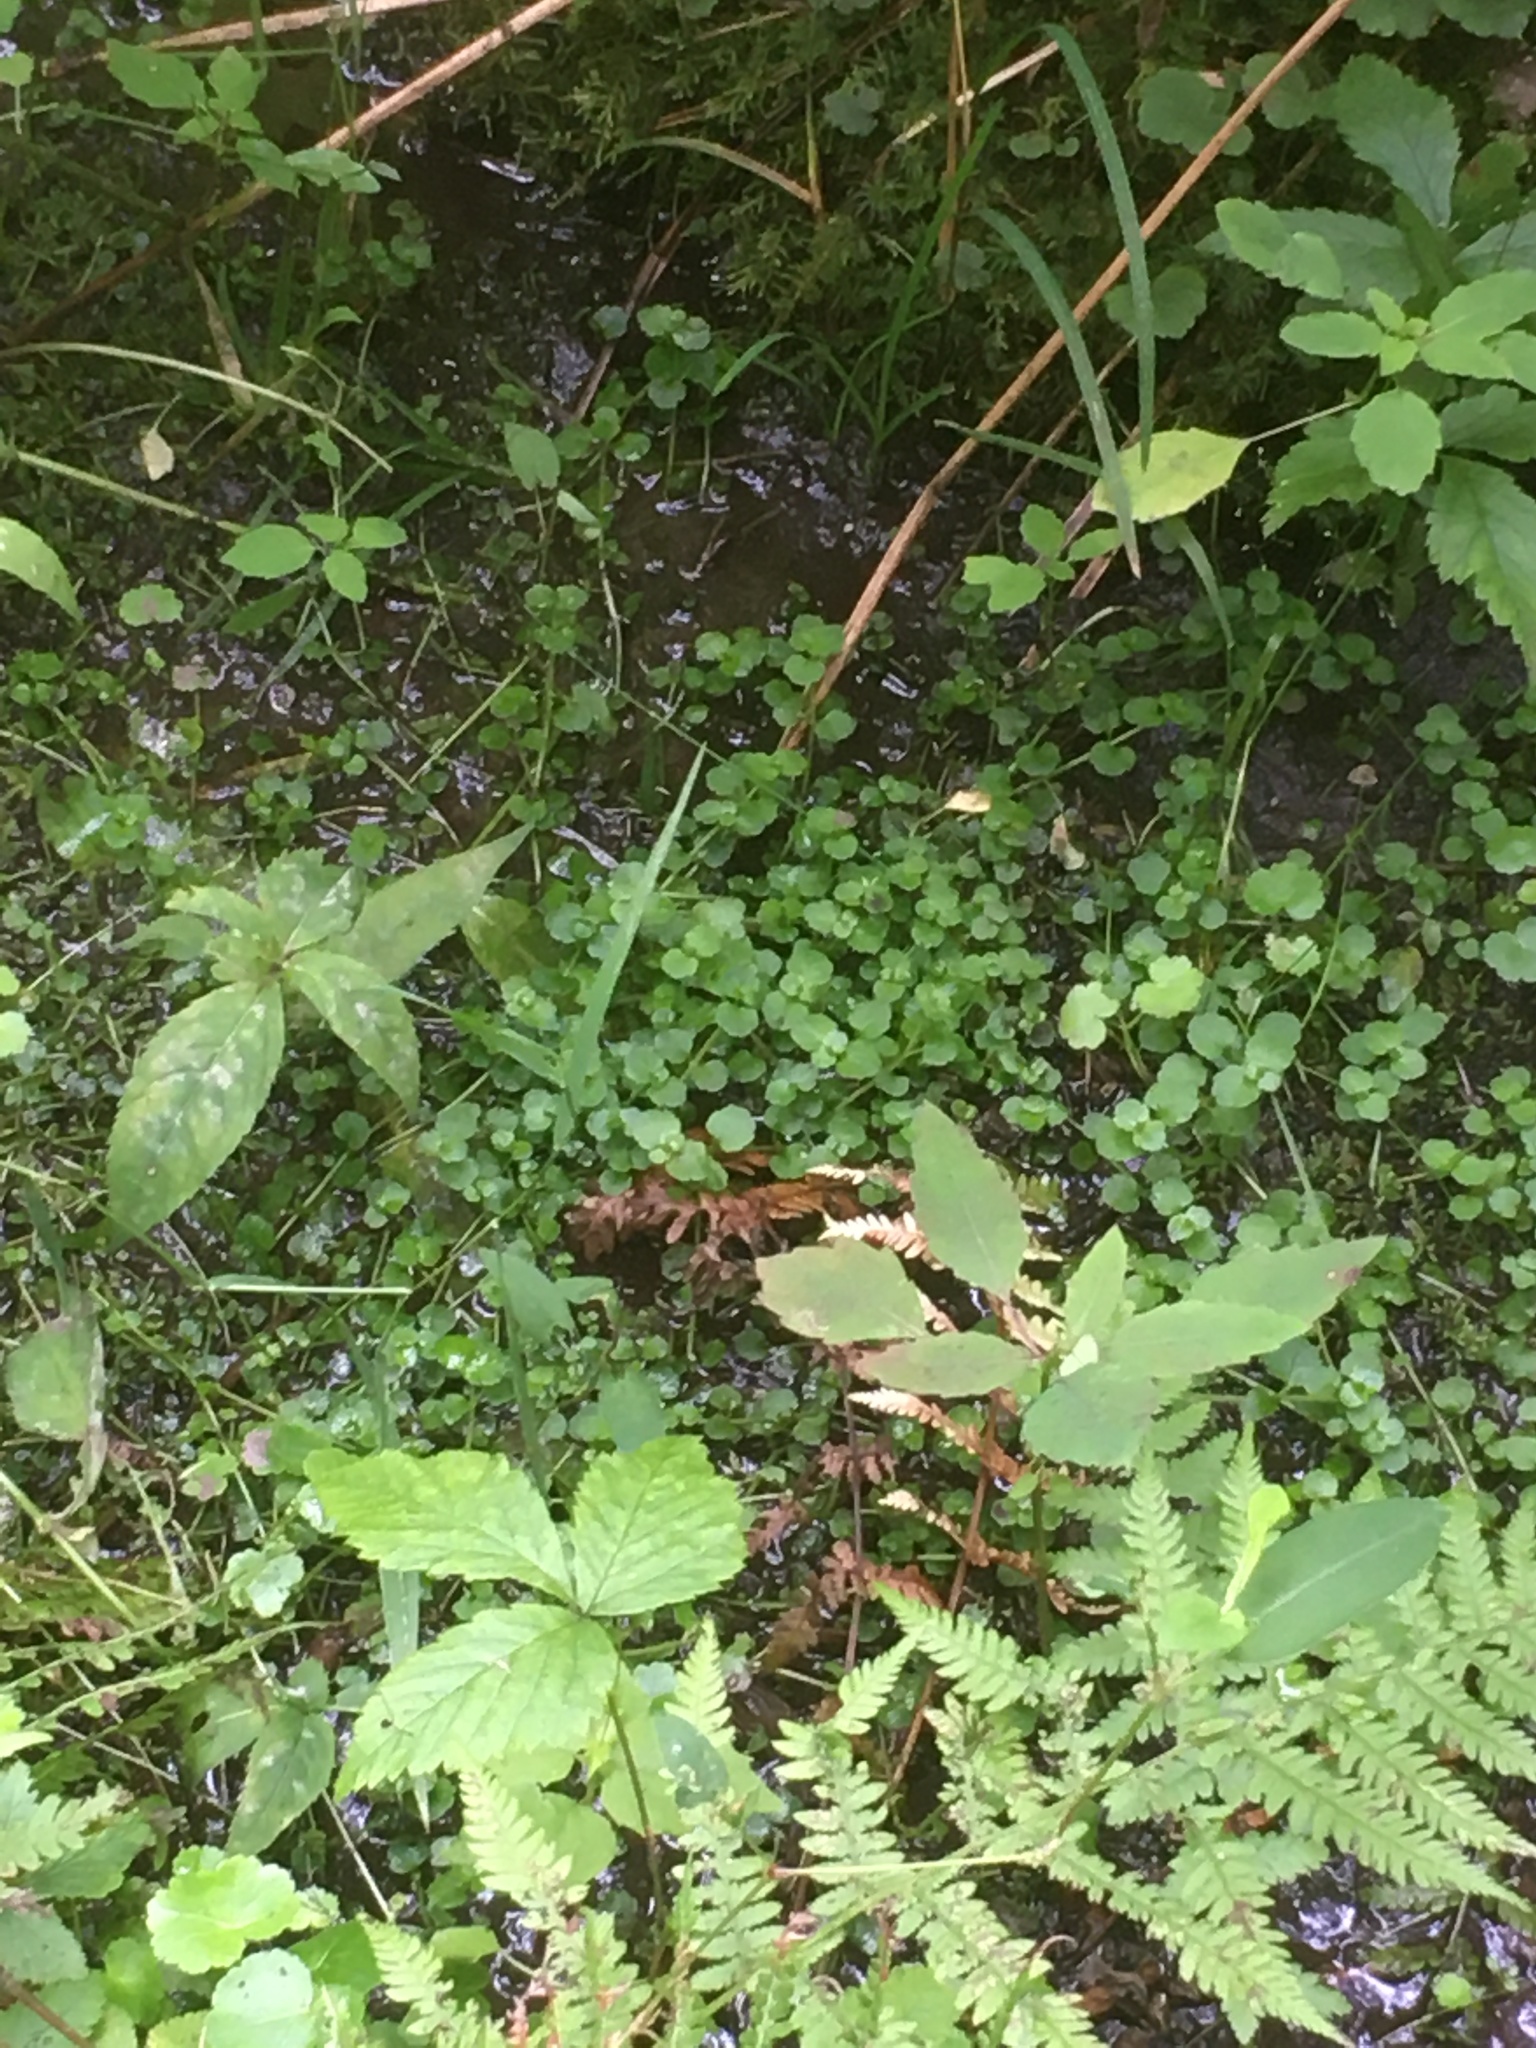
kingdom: Plantae
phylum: Tracheophyta
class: Magnoliopsida
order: Saxifragales
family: Saxifragaceae
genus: Chrysosplenium
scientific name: Chrysosplenium americanum
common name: American golden-saxifrage
